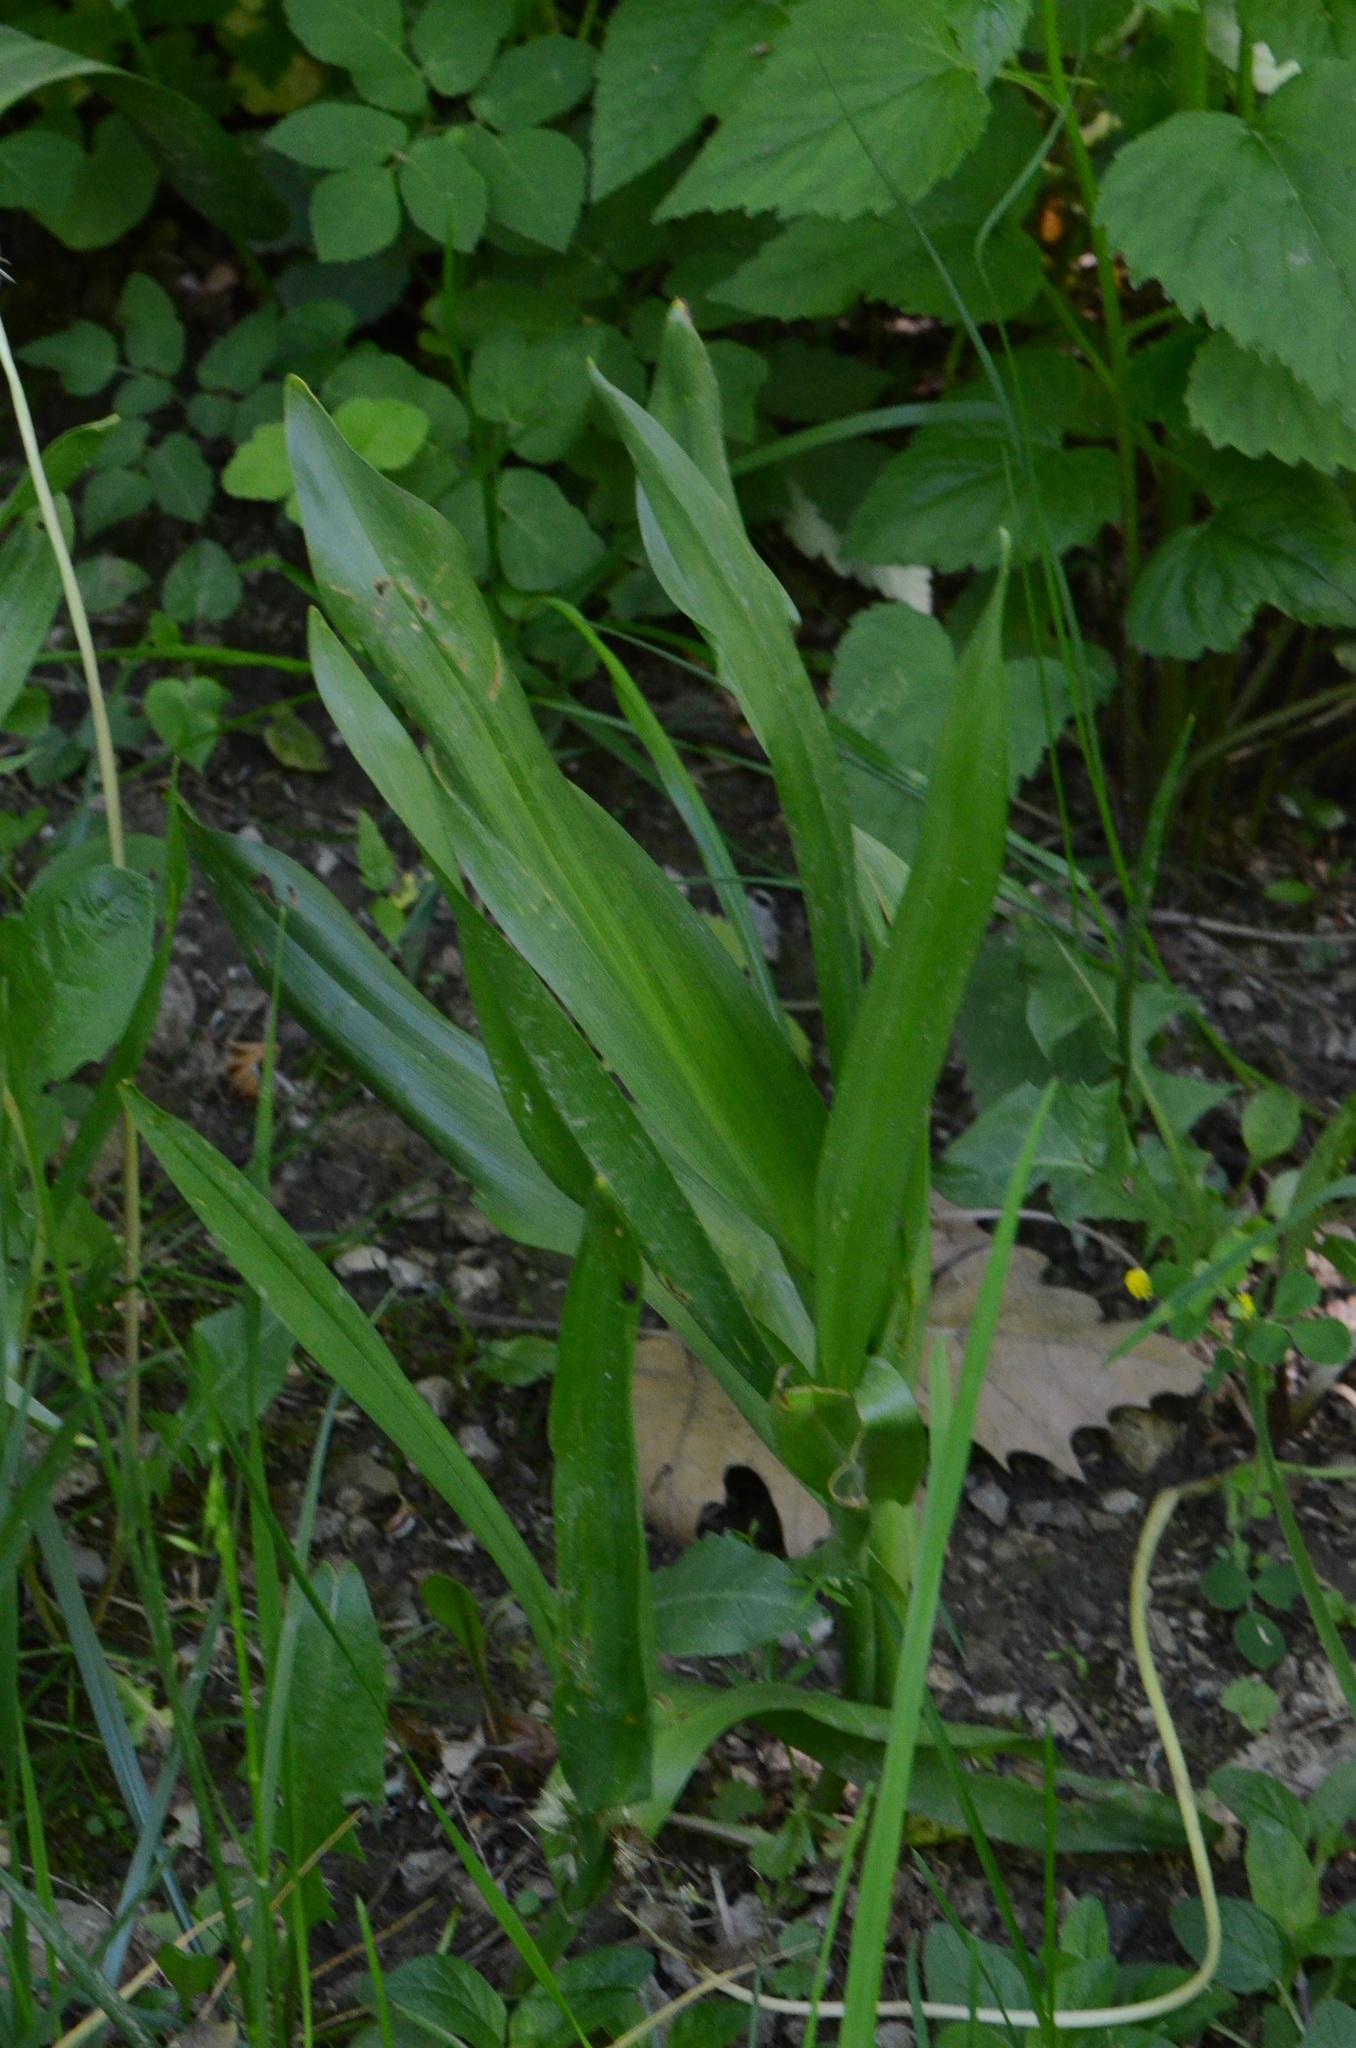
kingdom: Plantae
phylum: Tracheophyta
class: Liliopsida
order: Liliales
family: Colchicaceae
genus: Colchicum
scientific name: Colchicum autumnale
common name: Autumn crocus
